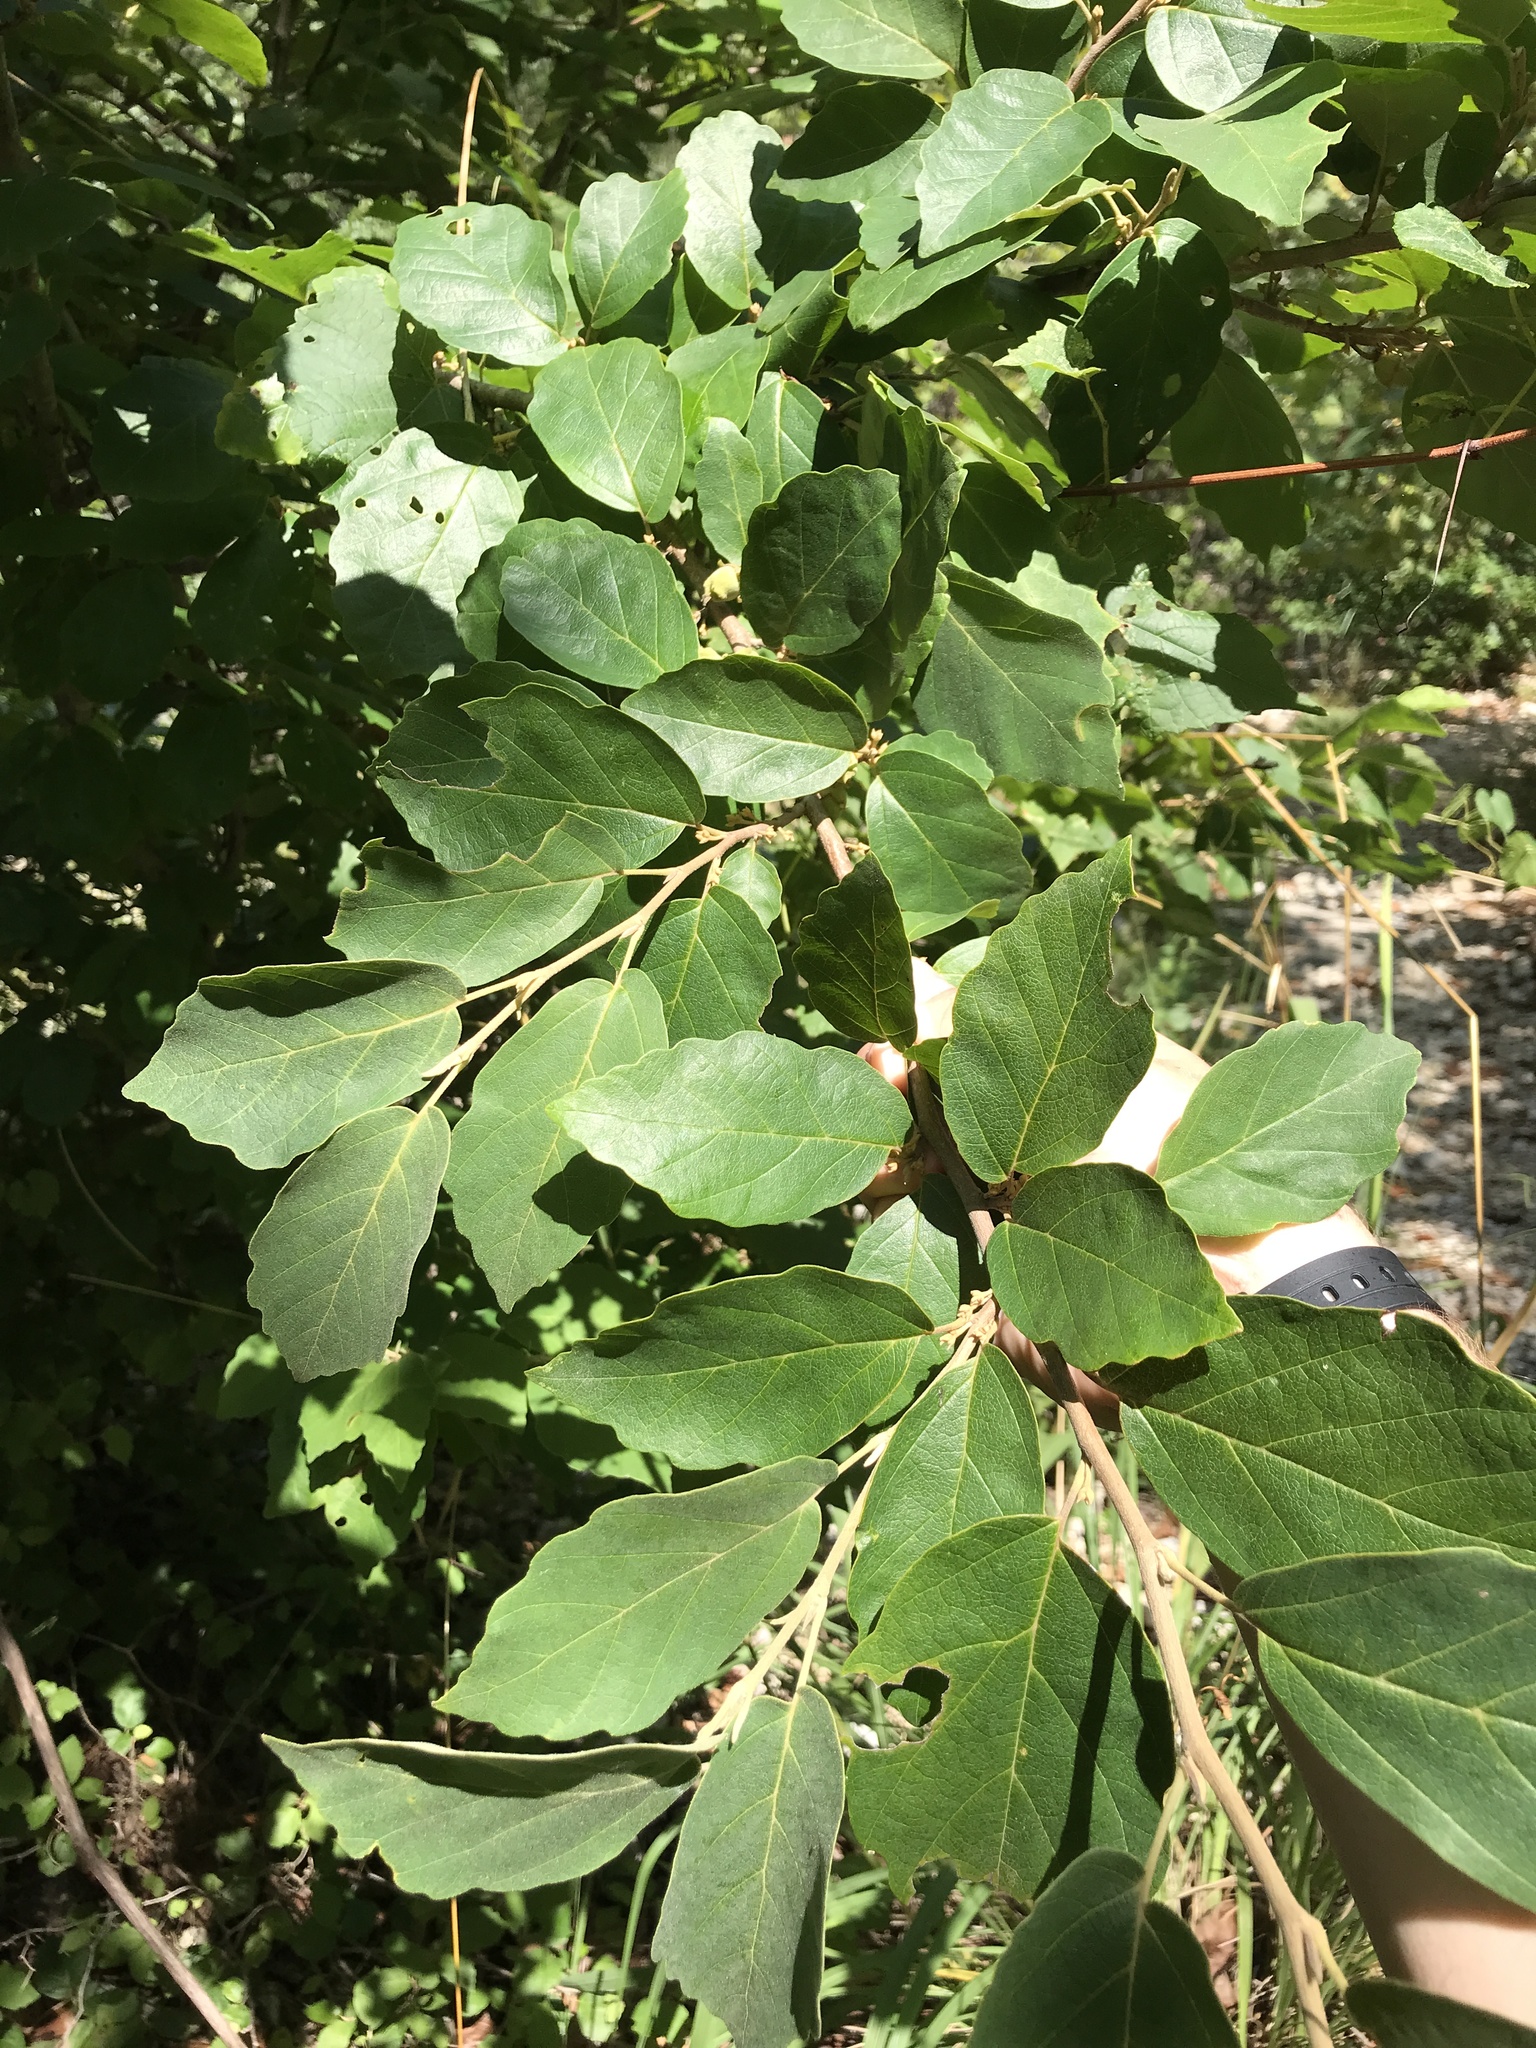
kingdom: Plantae
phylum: Tracheophyta
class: Magnoliopsida
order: Saxifragales
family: Hamamelidaceae
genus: Hamamelis
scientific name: Hamamelis virginiana
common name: Witch-hazel
